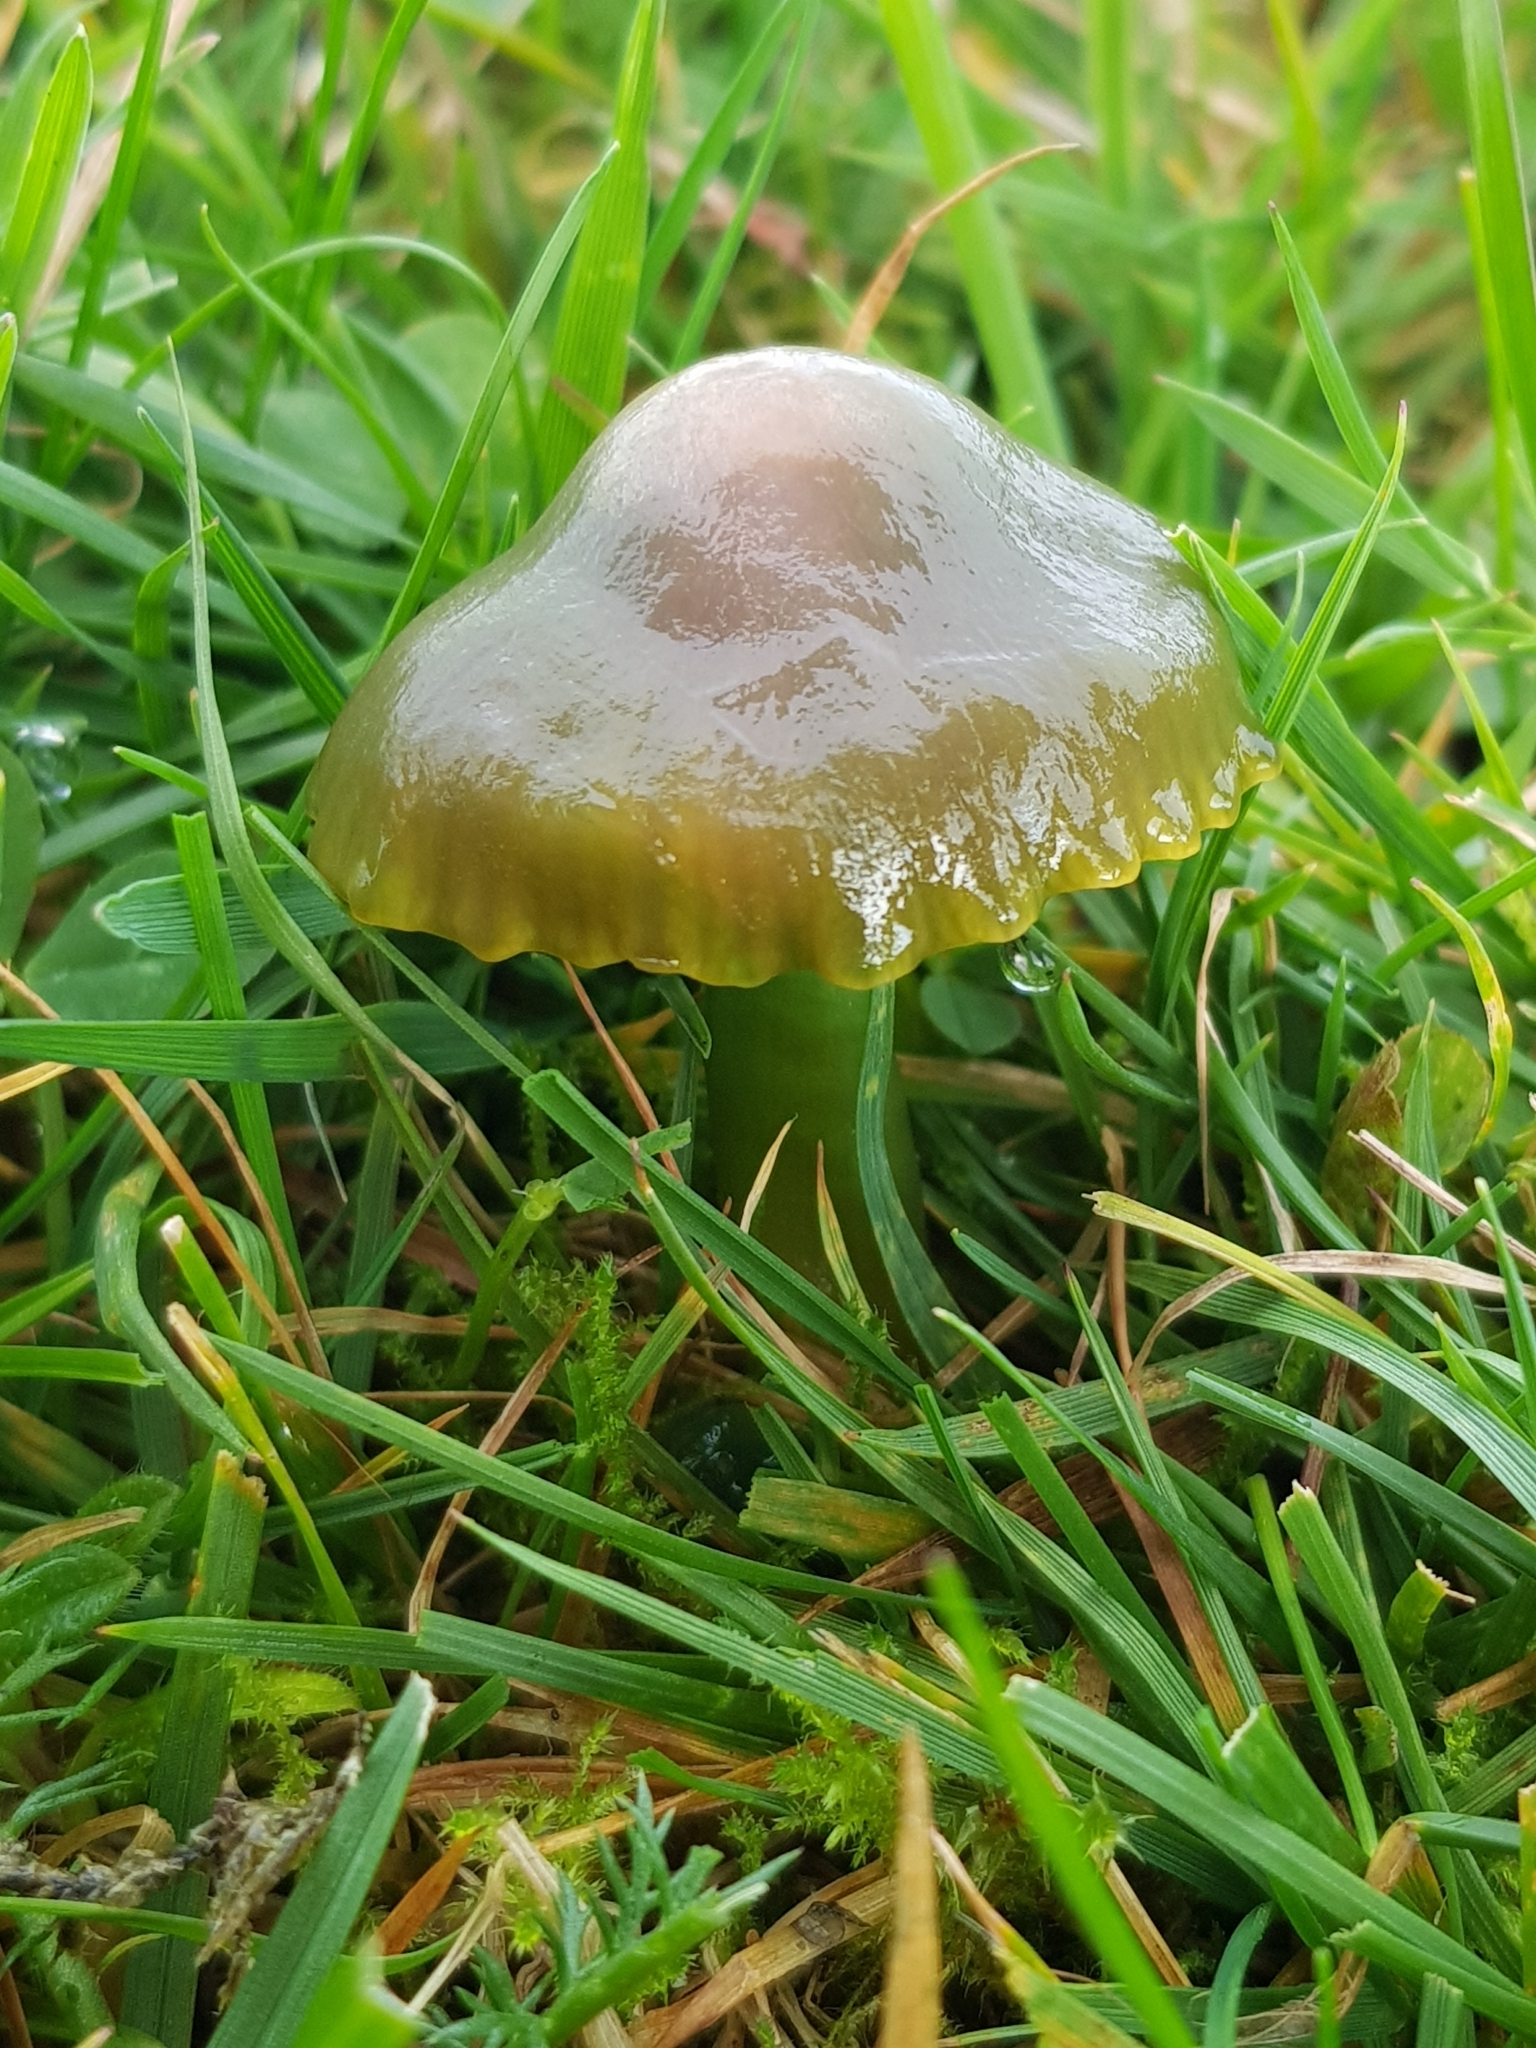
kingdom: Fungi
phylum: Basidiomycota
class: Agaricomycetes
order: Agaricales
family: Hygrophoraceae
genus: Gliophorus
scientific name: Gliophorus psittacinus
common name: Parrot wax-cap
